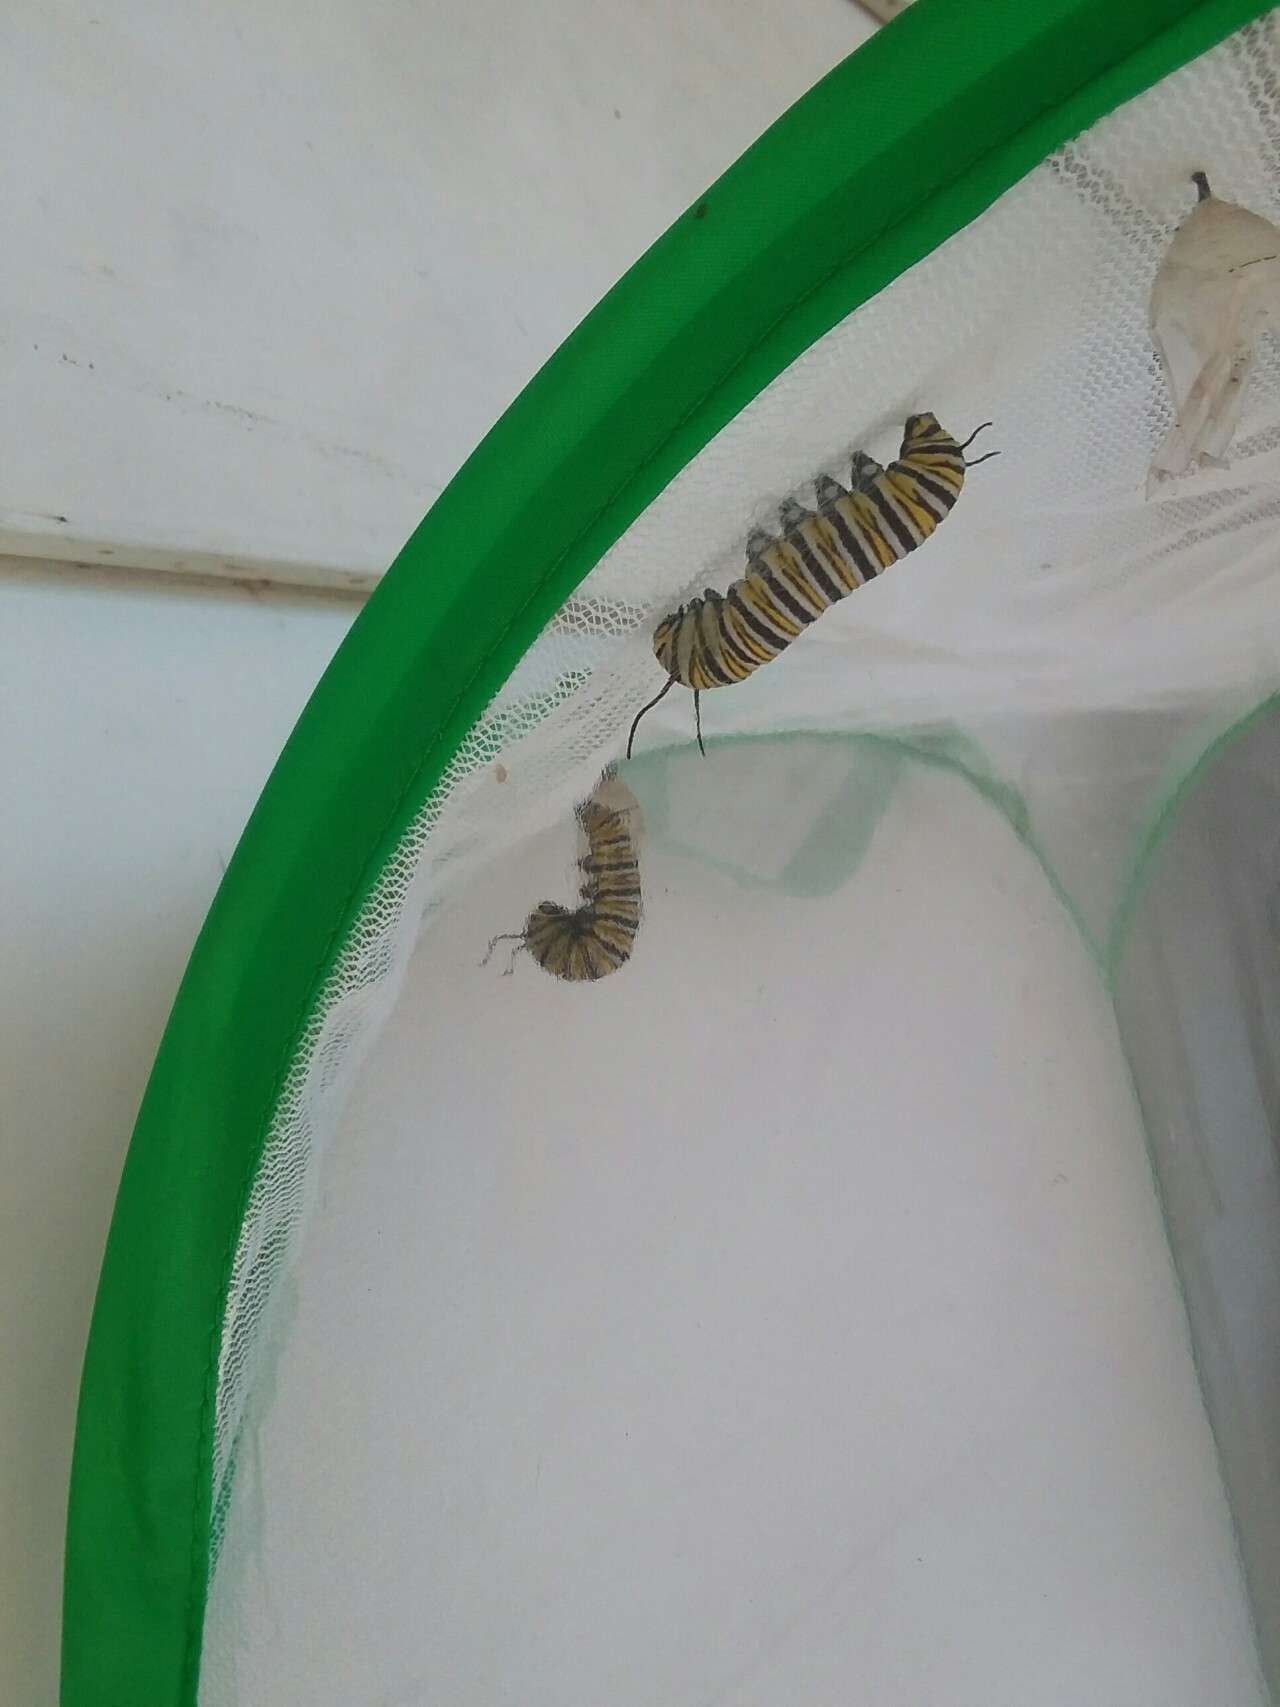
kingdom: Animalia
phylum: Arthropoda
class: Insecta
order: Lepidoptera
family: Nymphalidae
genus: Danaus
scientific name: Danaus plexippus
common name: Monarch
